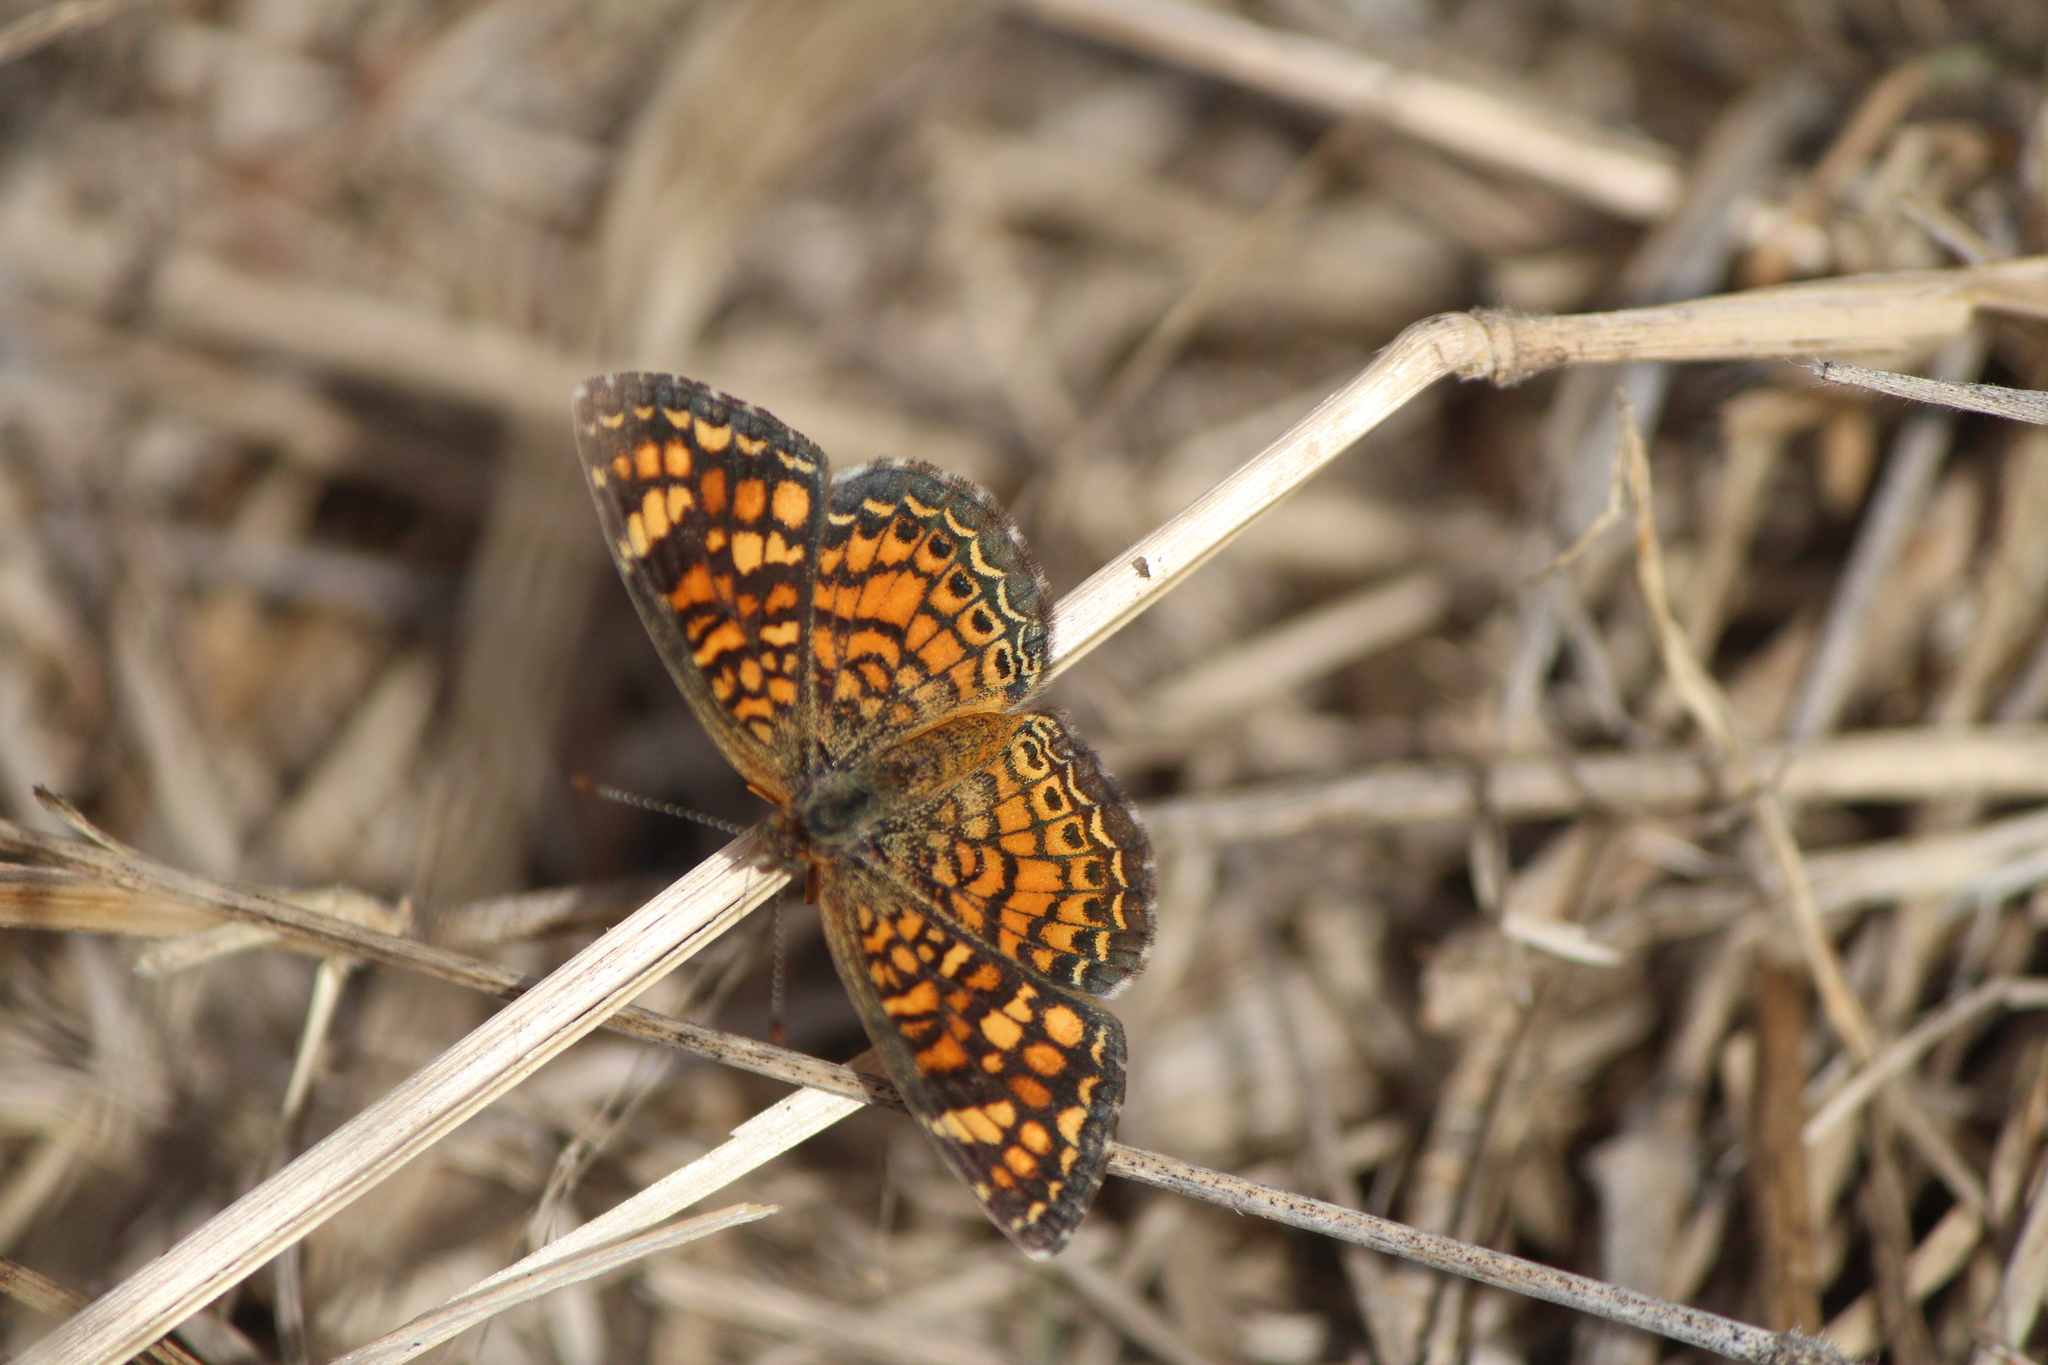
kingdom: Animalia
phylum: Arthropoda
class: Insecta
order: Lepidoptera
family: Nymphalidae
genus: Phyciodes
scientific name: Phyciodes vesta
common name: Vesta crescent
